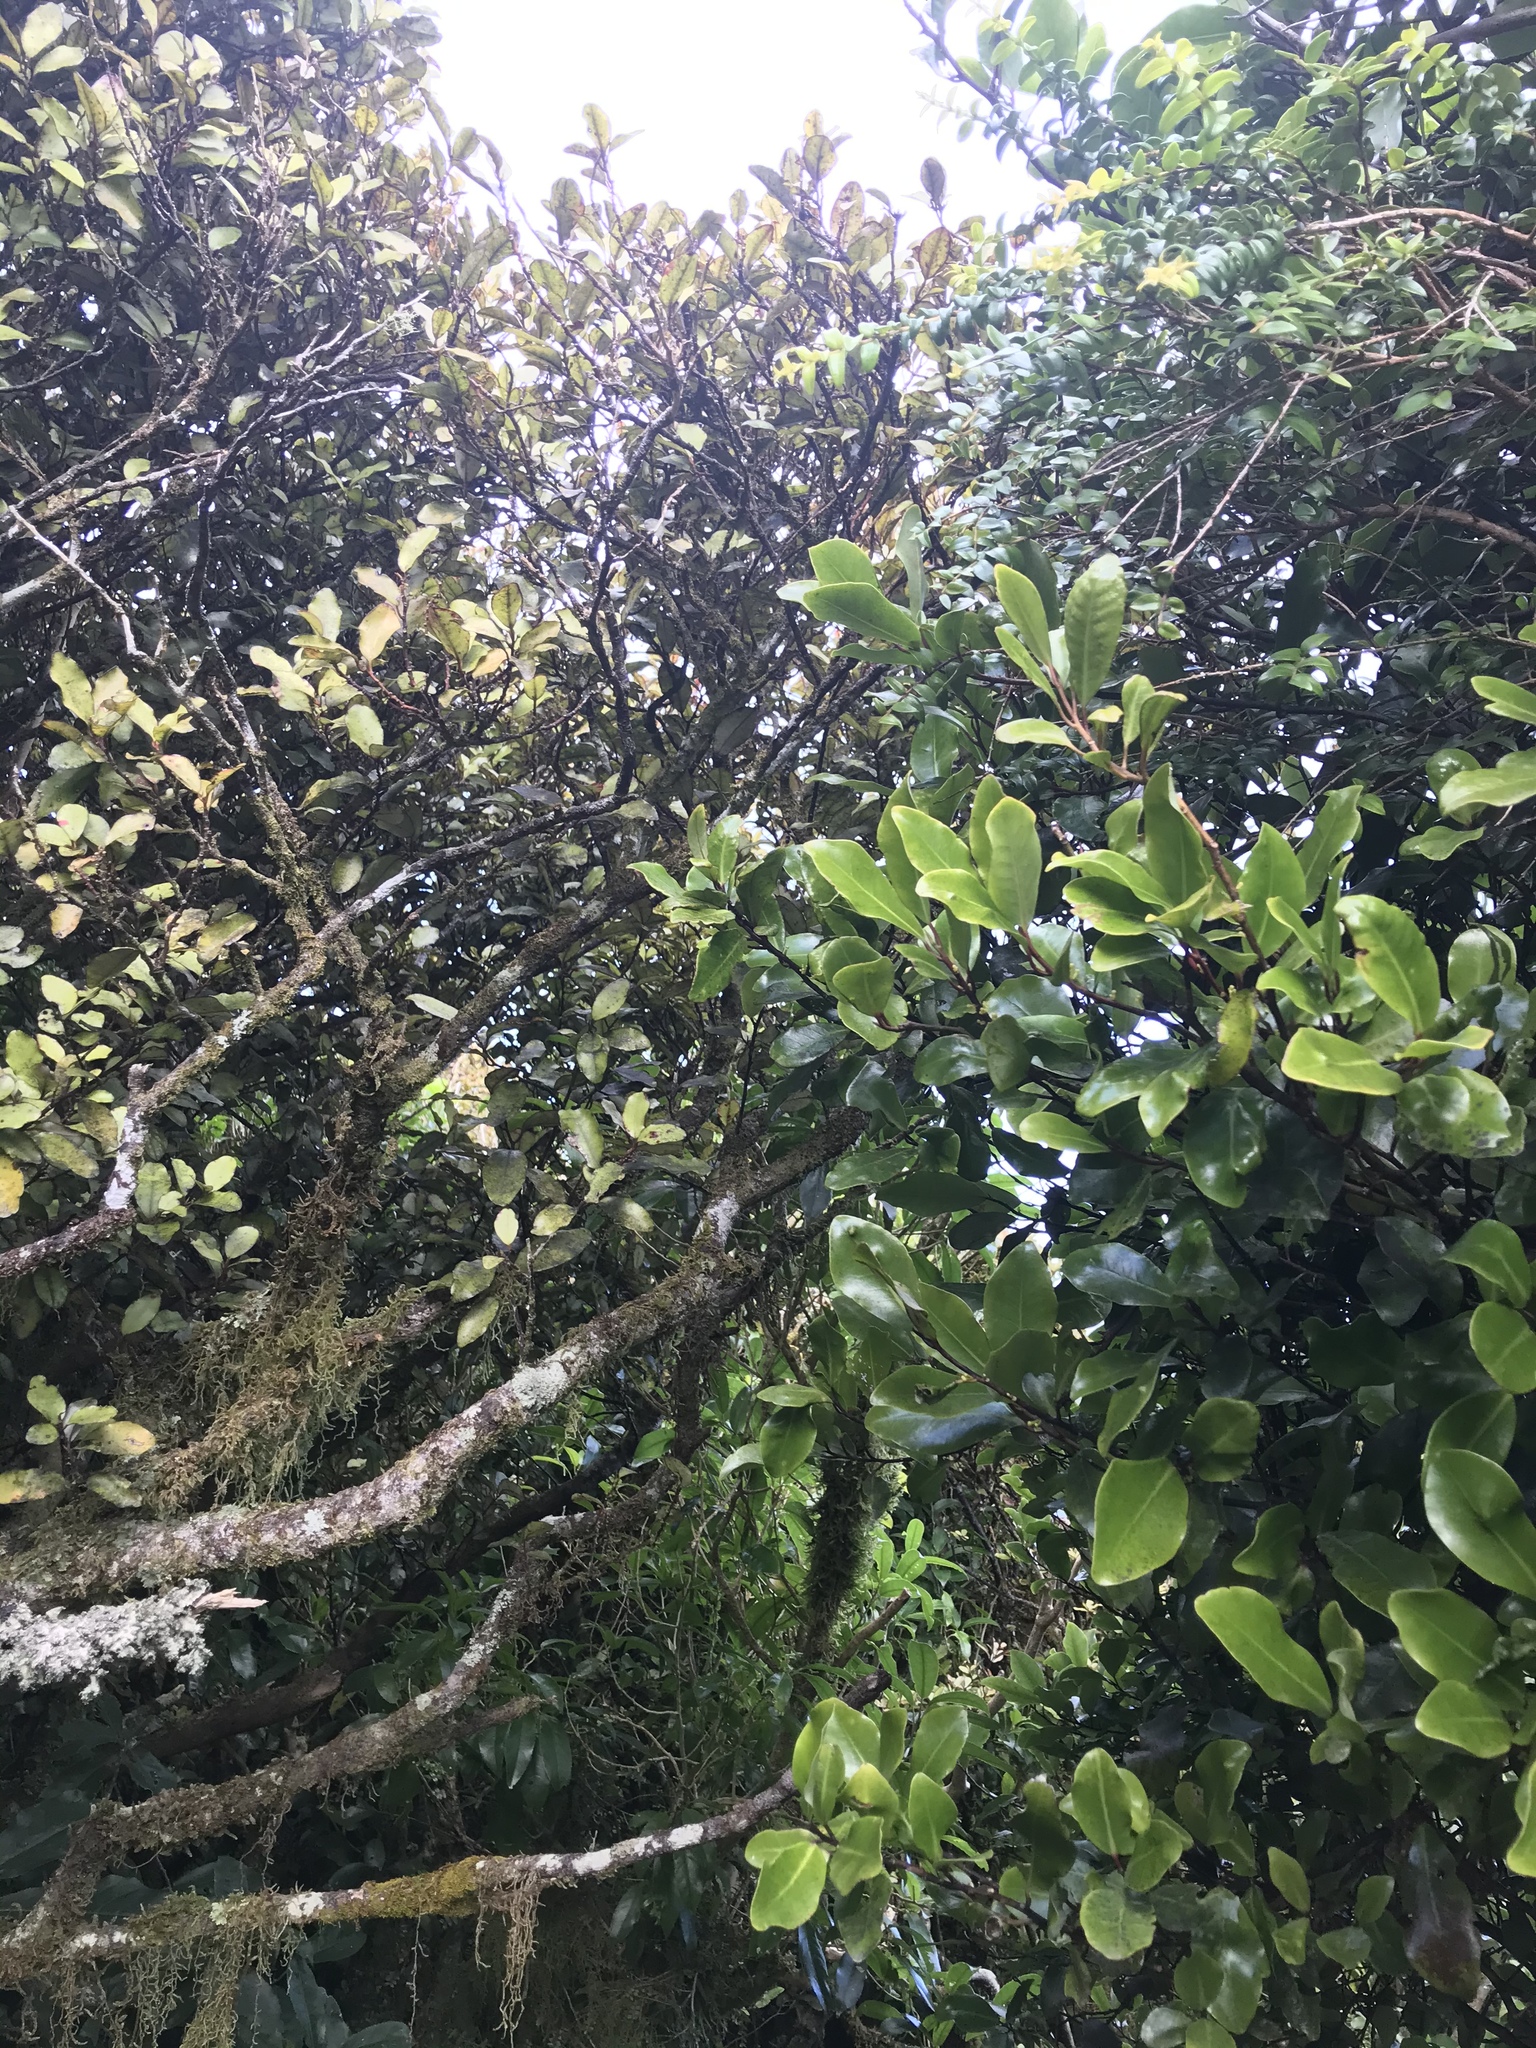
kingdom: Plantae
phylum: Tracheophyta
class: Magnoliopsida
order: Canellales
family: Winteraceae
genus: Pseudowintera
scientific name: Pseudowintera axillaris
